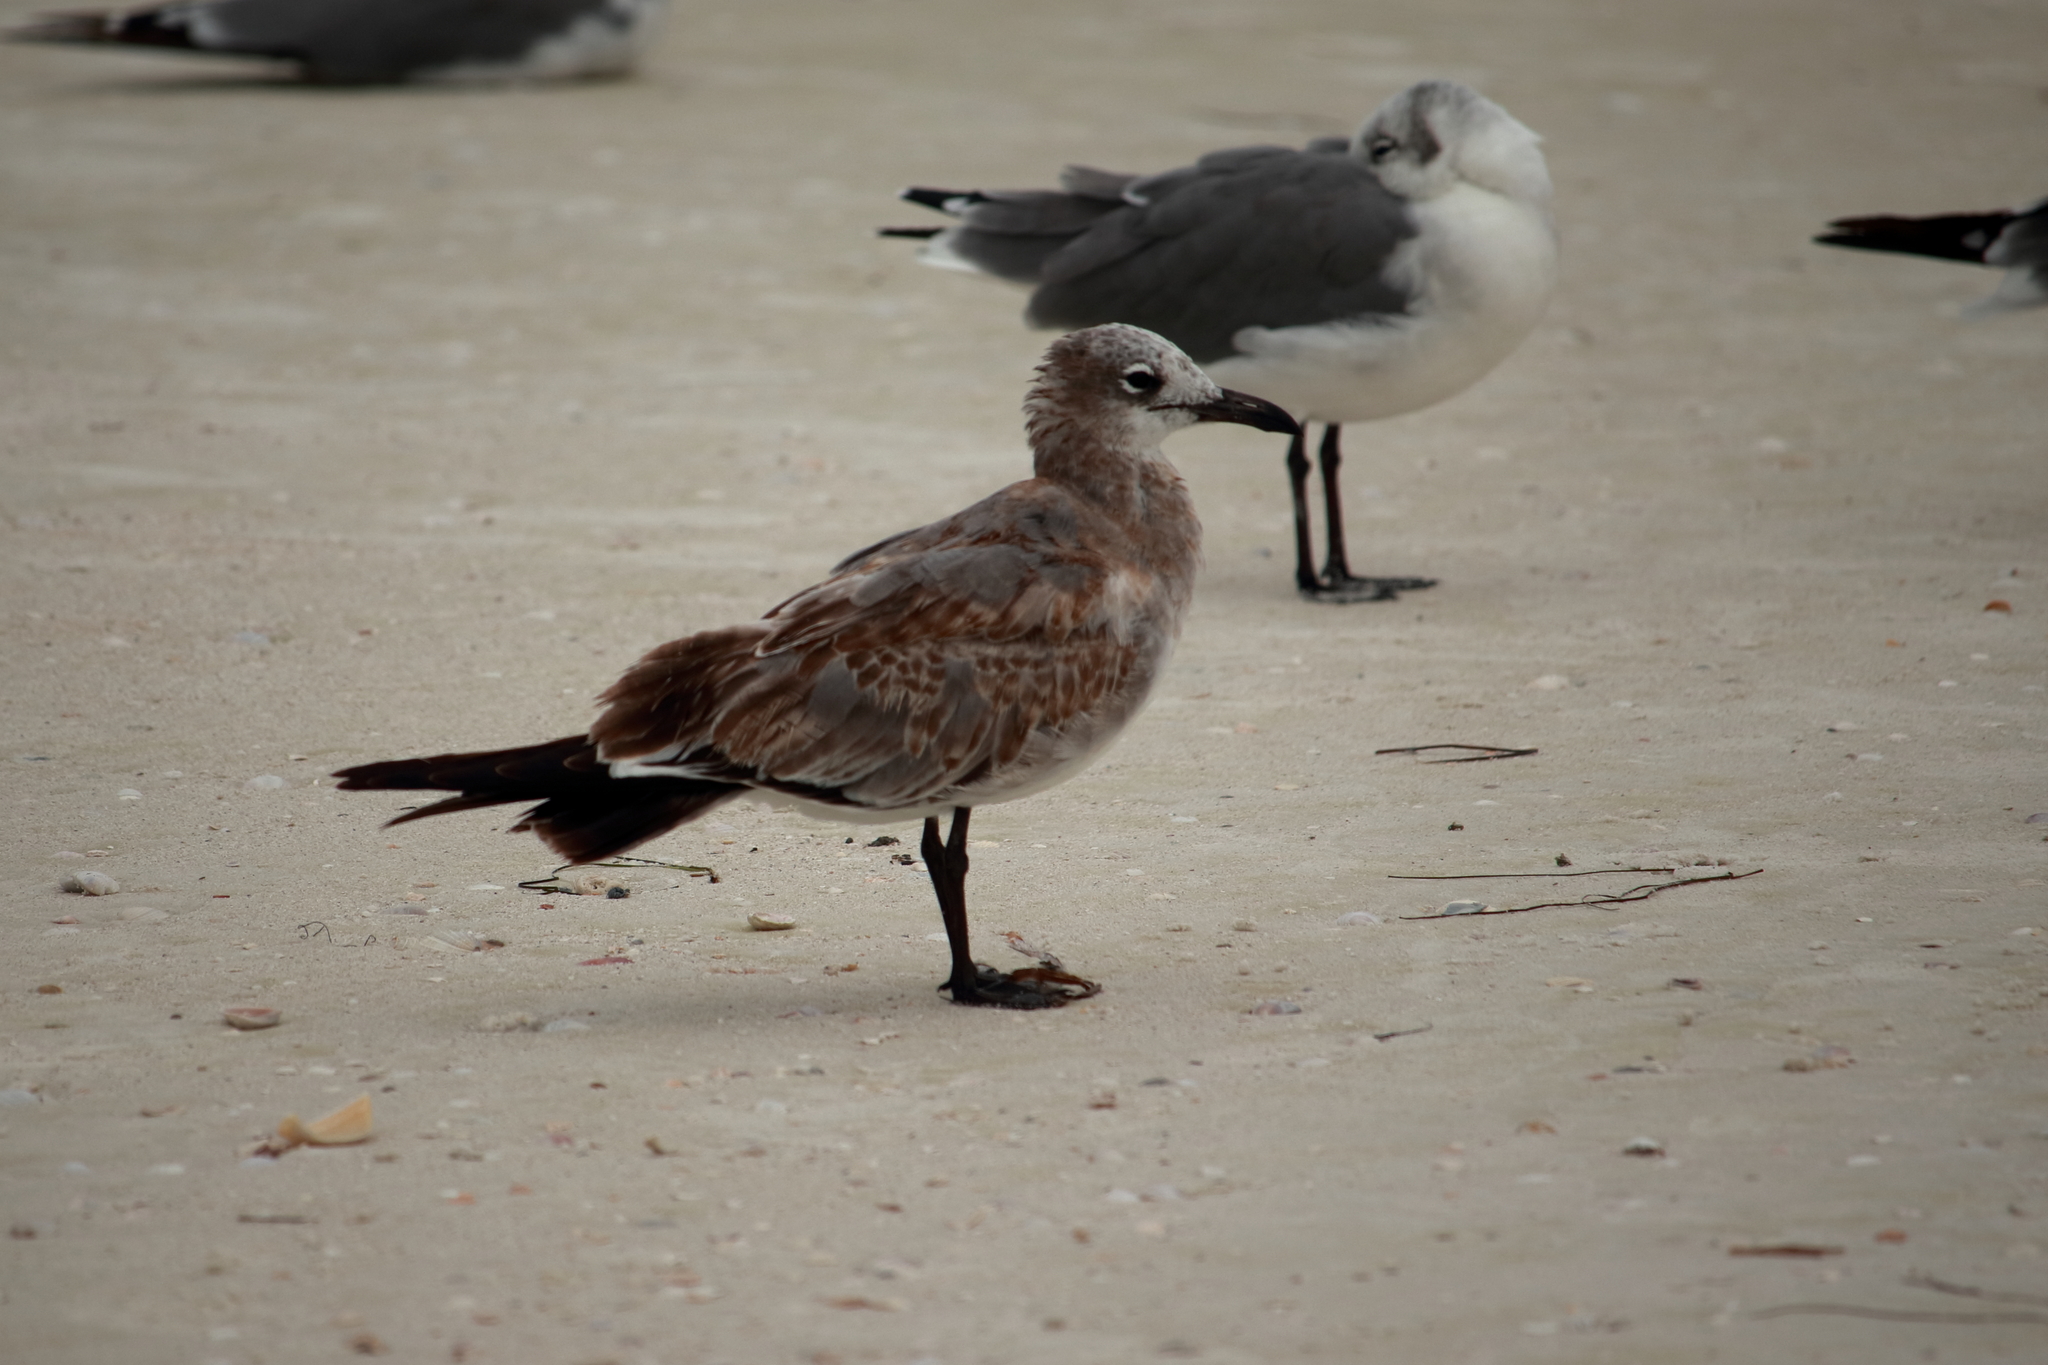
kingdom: Animalia
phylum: Chordata
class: Aves
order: Charadriiformes
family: Laridae
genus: Leucophaeus
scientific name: Leucophaeus atricilla
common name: Laughing gull
